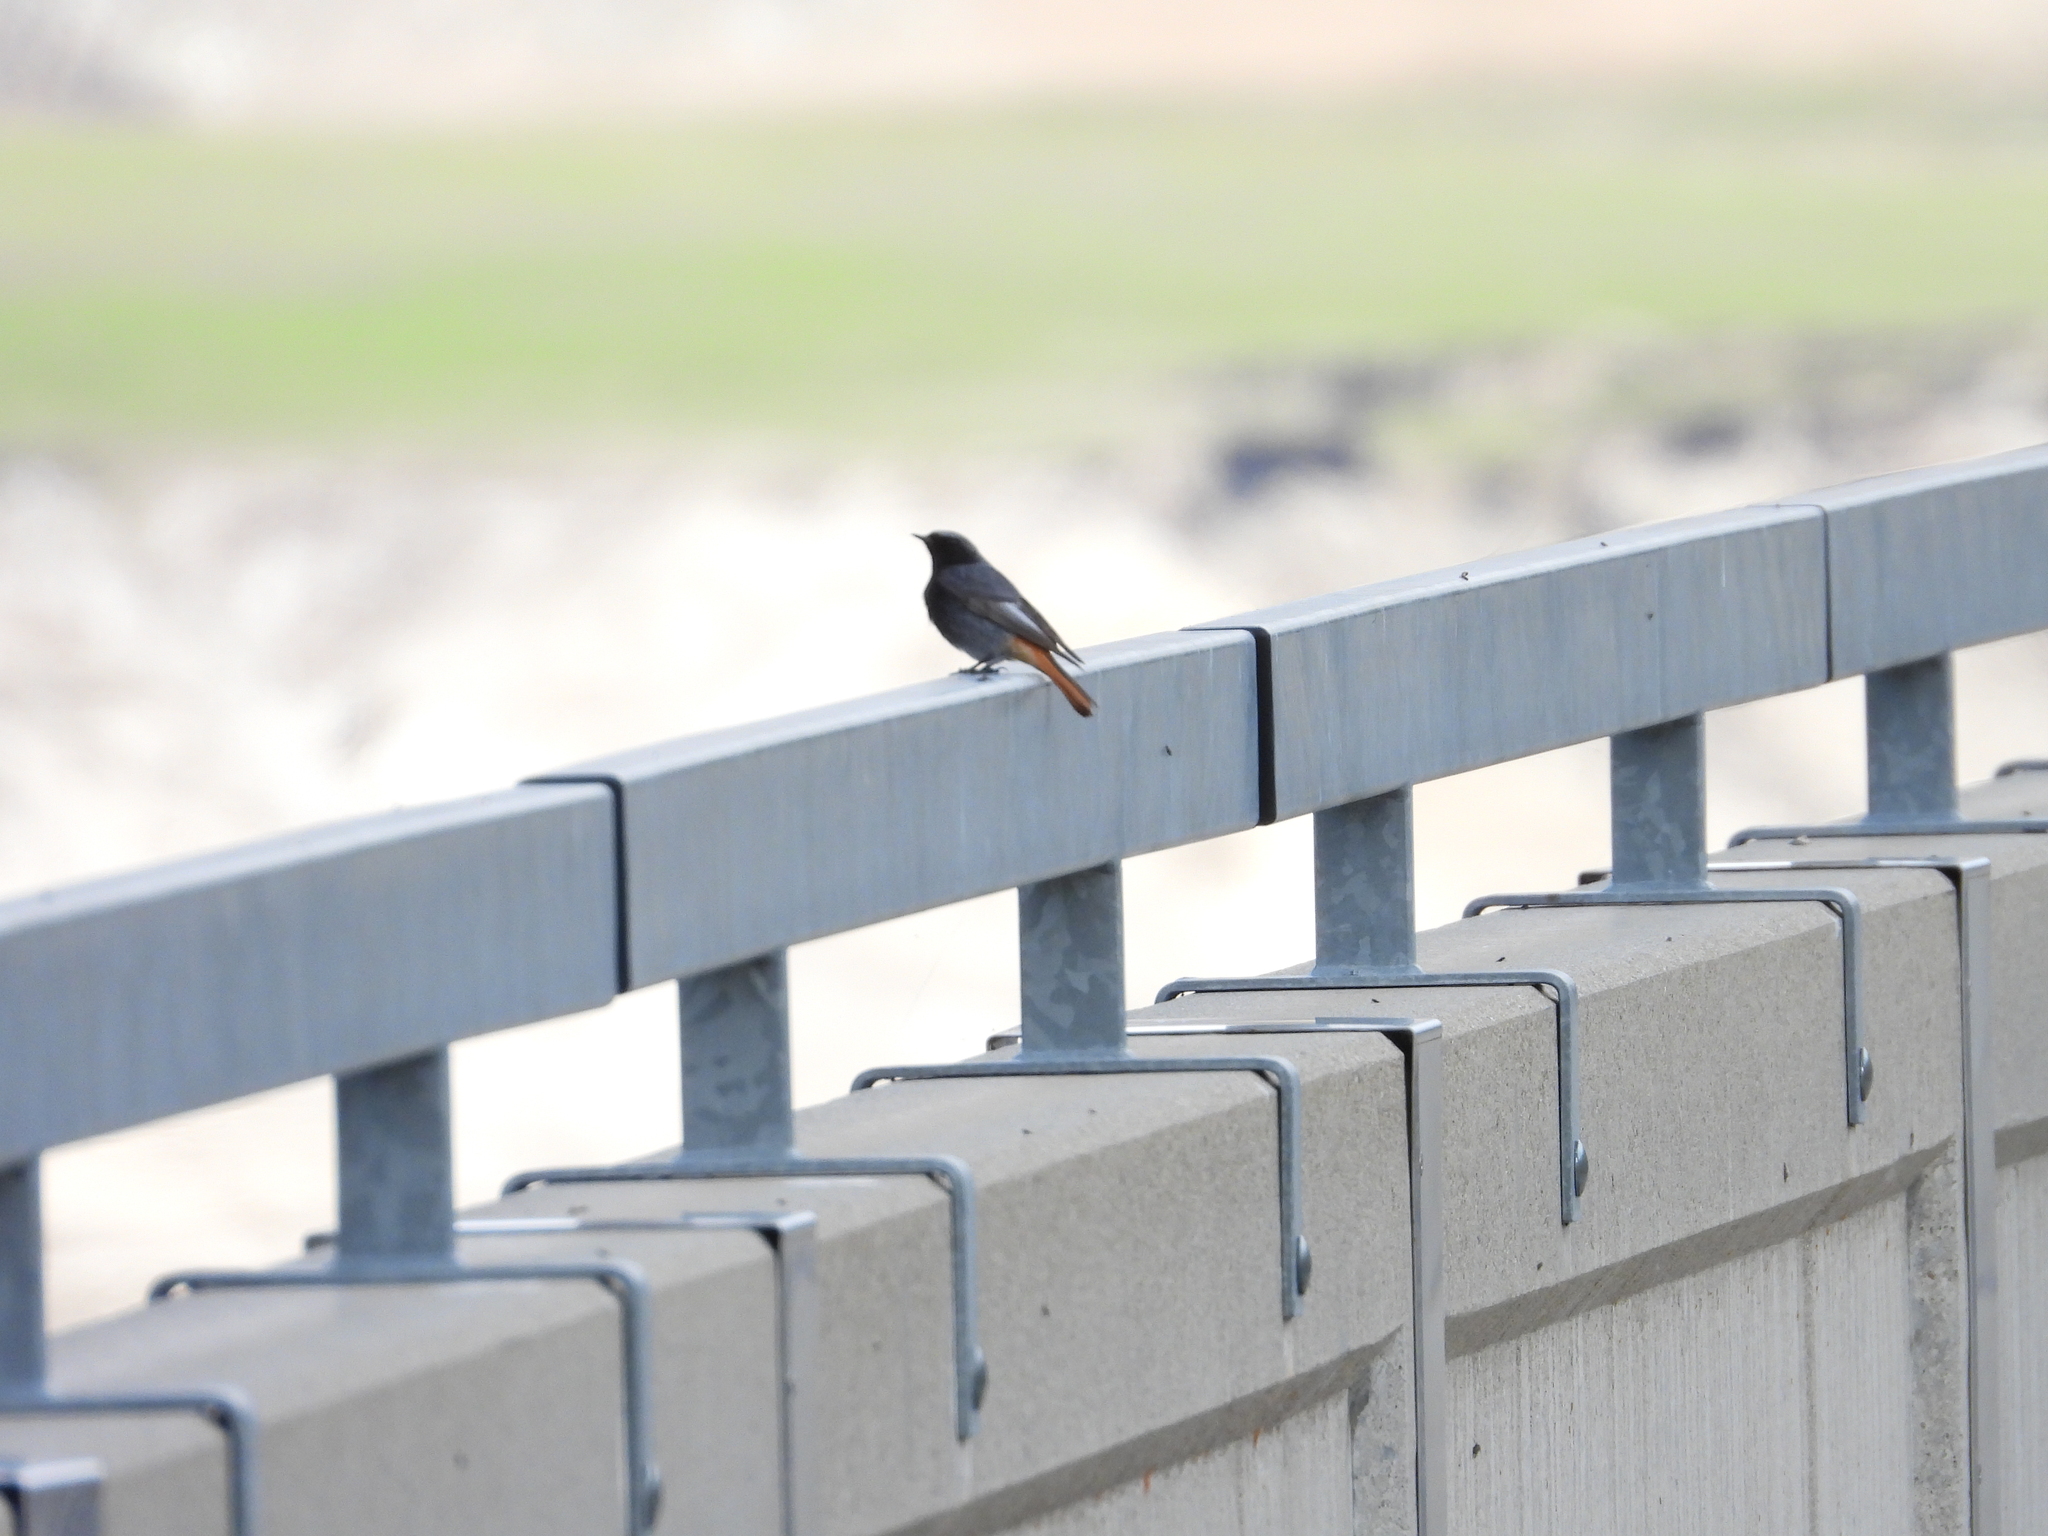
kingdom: Animalia
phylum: Chordata
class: Aves
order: Passeriformes
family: Muscicapidae
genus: Phoenicurus
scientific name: Phoenicurus ochruros
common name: Black redstart
